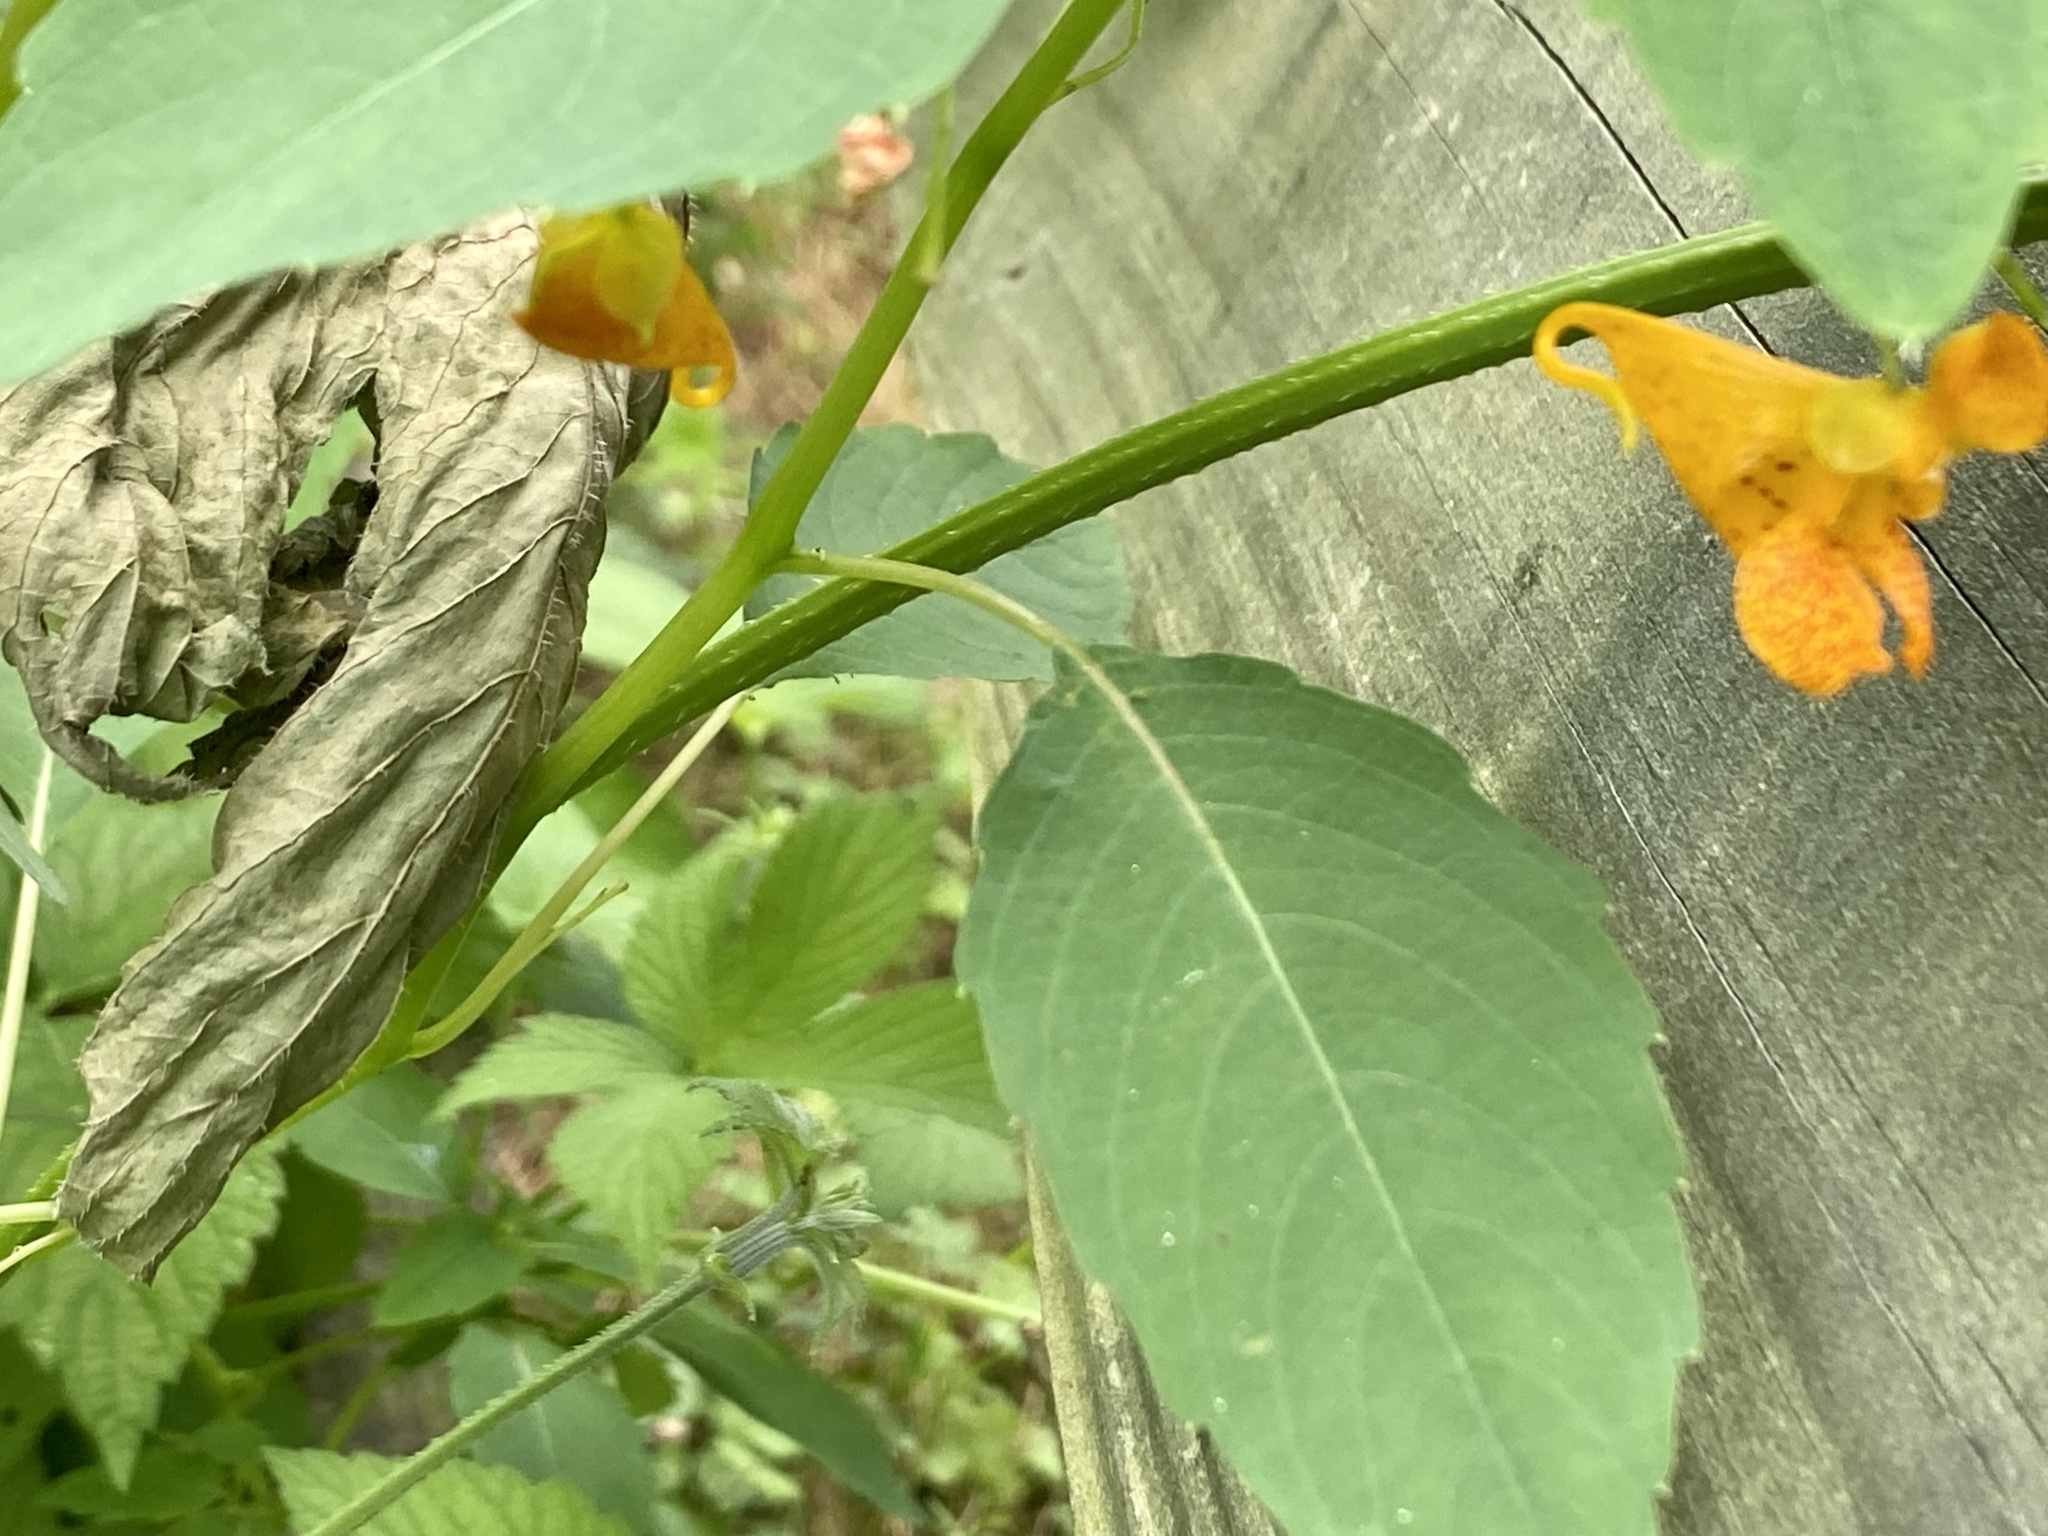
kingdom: Plantae
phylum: Tracheophyta
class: Magnoliopsida
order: Ericales
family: Balsaminaceae
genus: Impatiens
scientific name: Impatiens capensis
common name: Orange balsam
